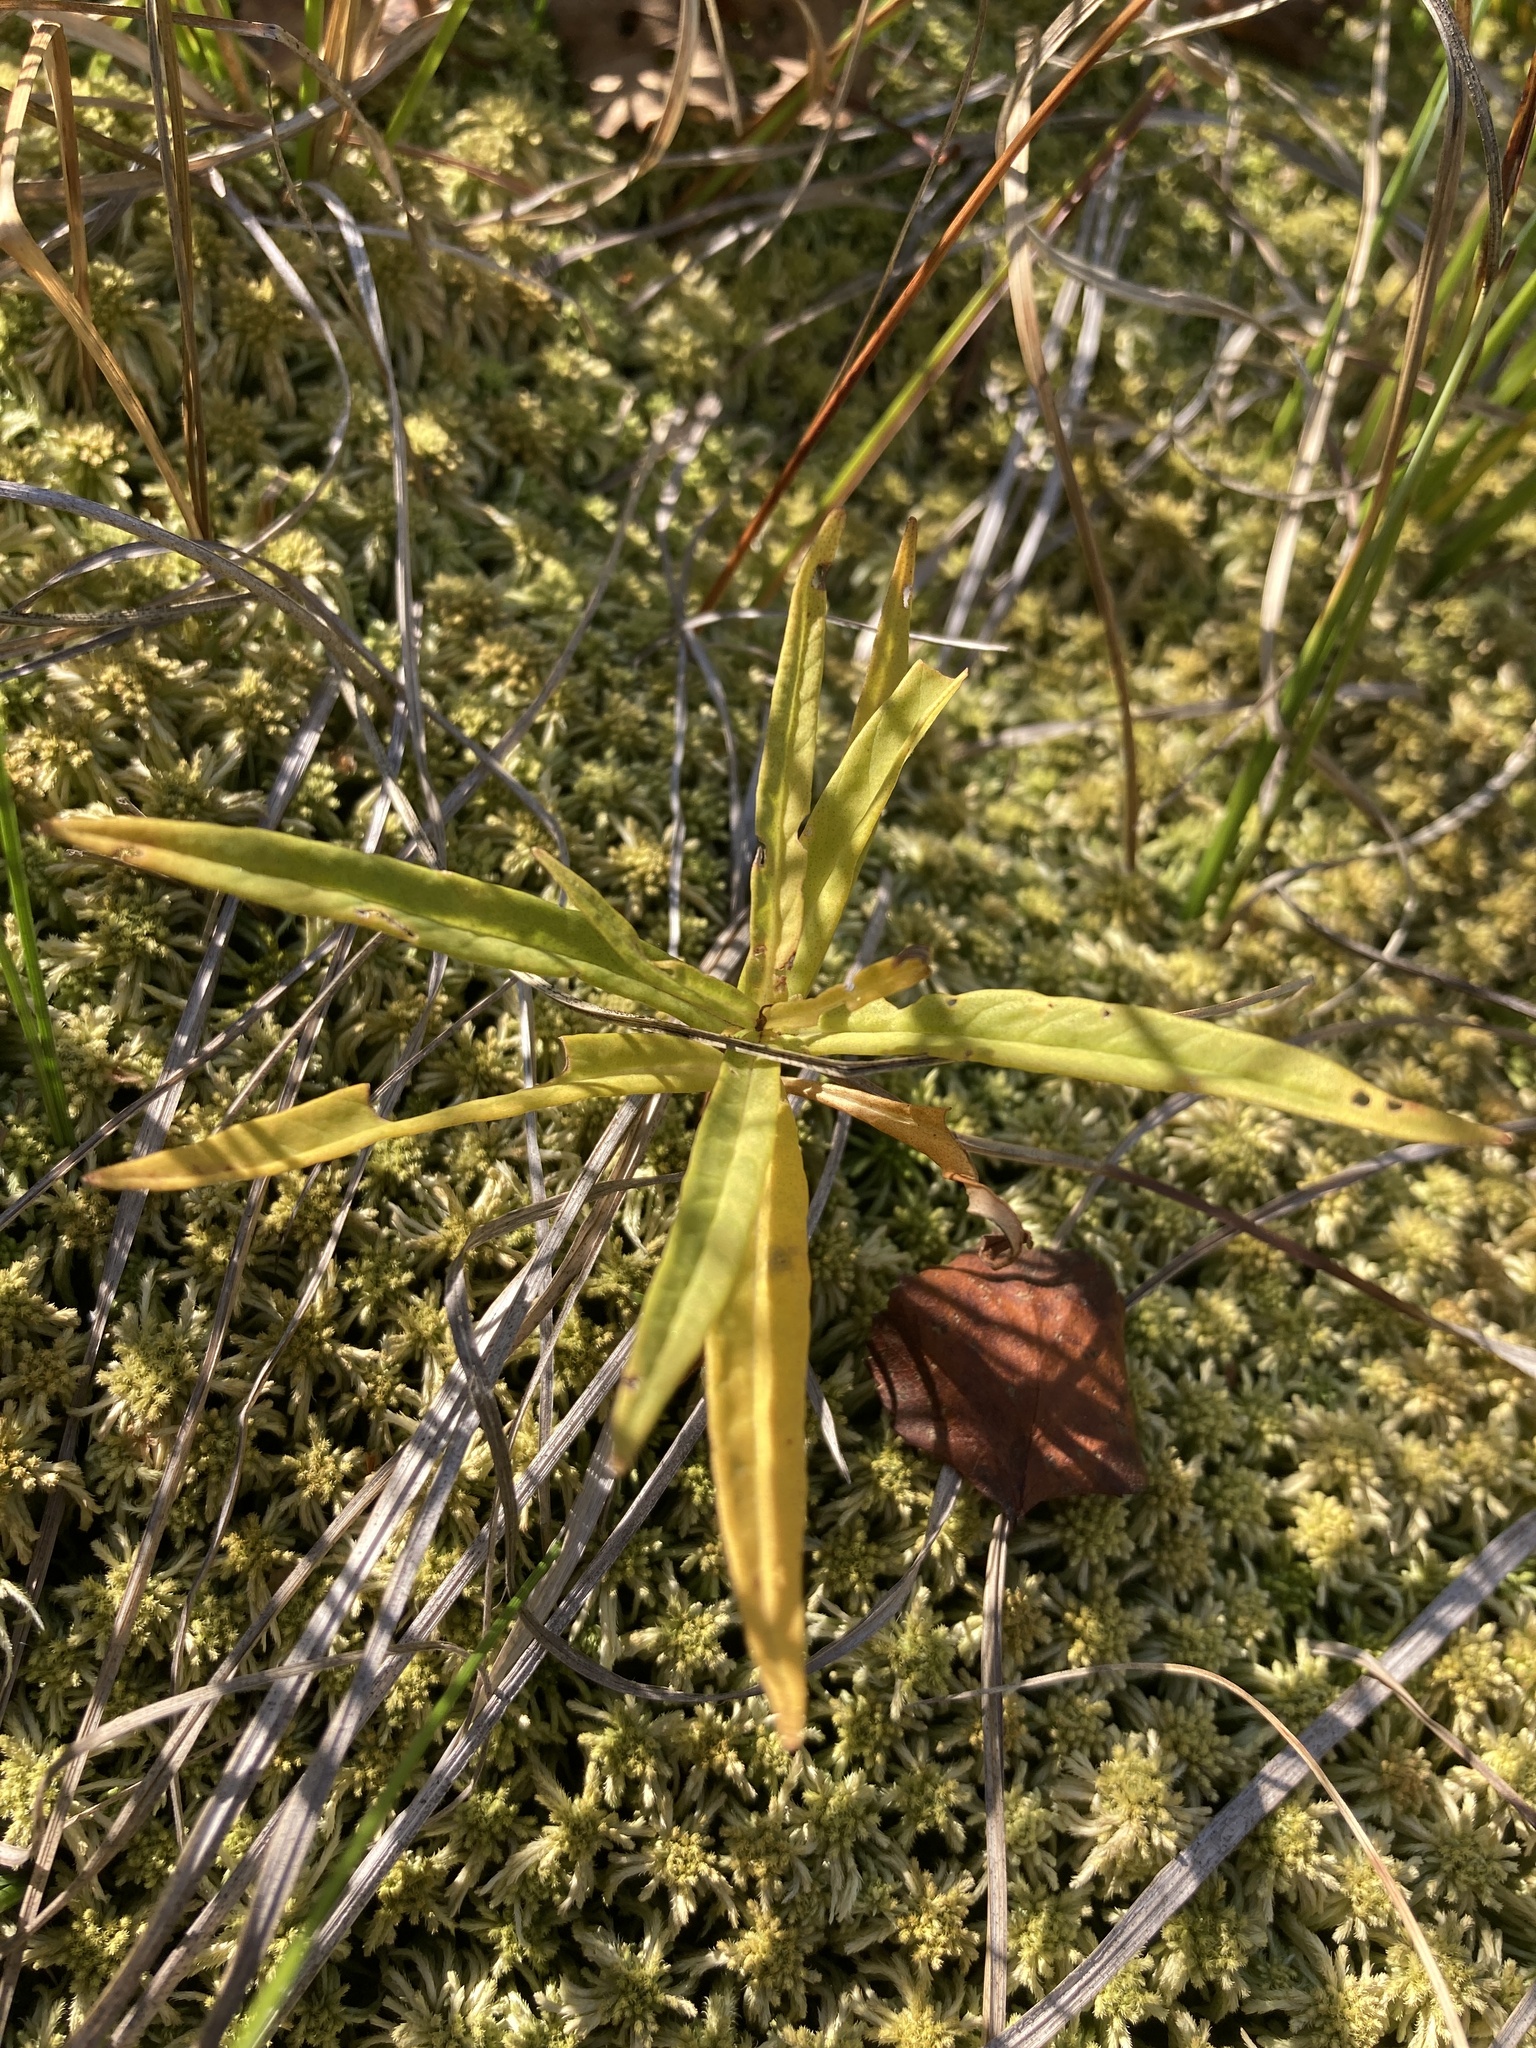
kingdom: Plantae
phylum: Tracheophyta
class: Magnoliopsida
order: Ericales
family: Primulaceae
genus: Lysimachia
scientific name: Lysimachia thyrsiflora
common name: Tufted loosestrife
